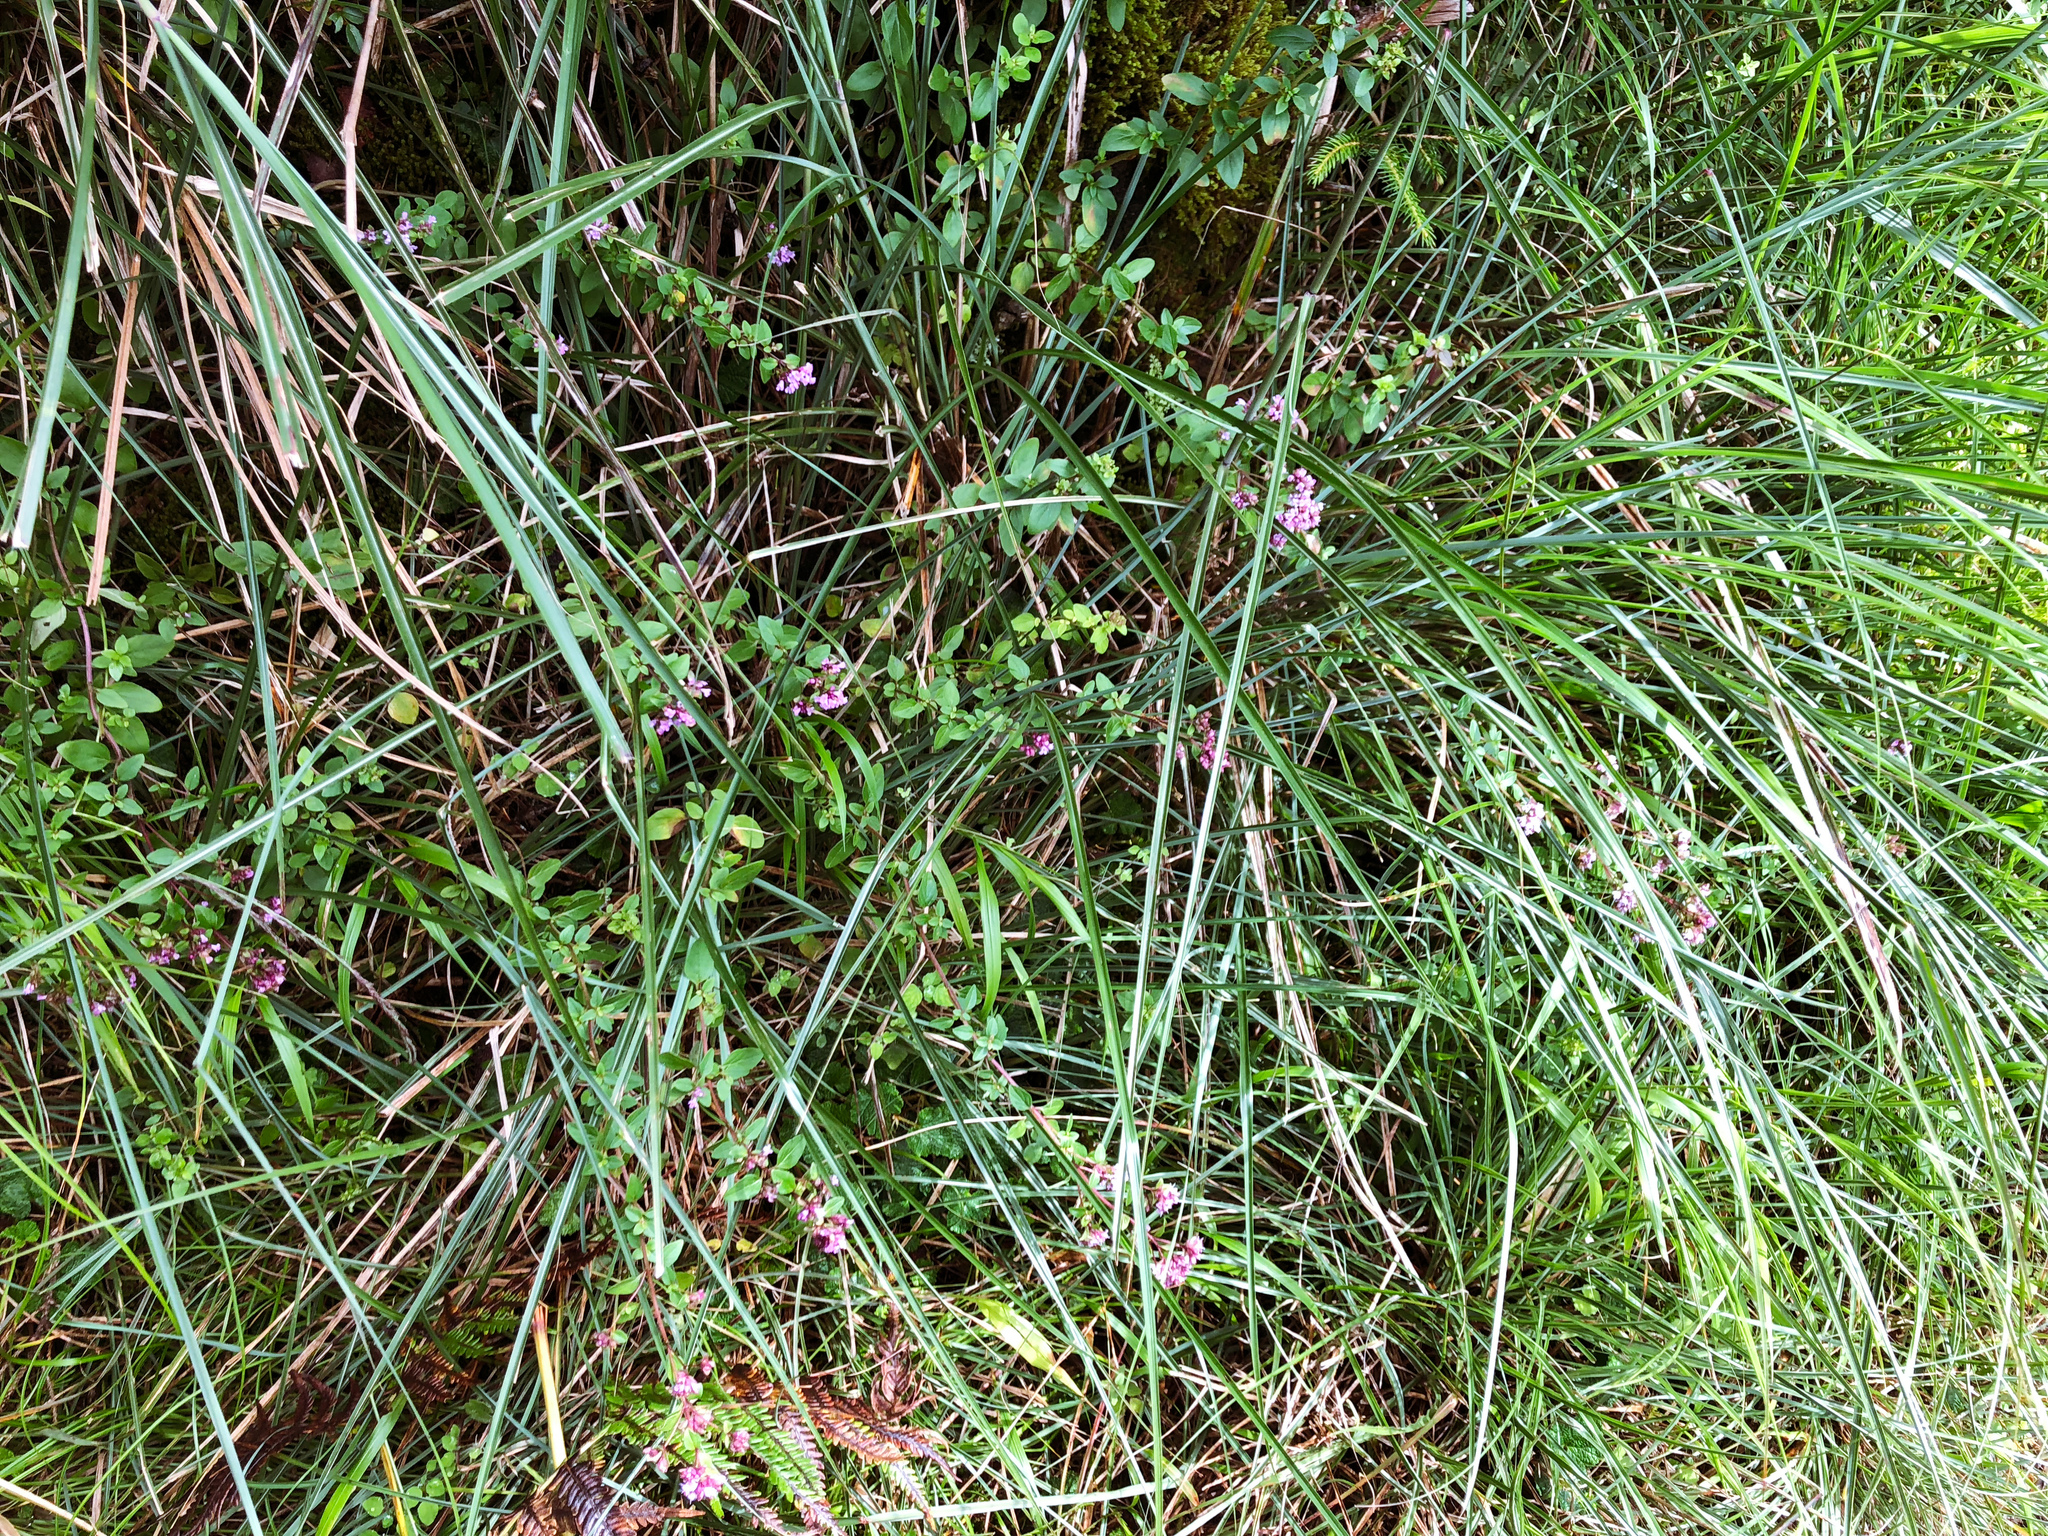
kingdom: Plantae
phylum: Tracheophyta
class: Magnoliopsida
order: Lamiales
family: Lamiaceae
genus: Origanum
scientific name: Origanum vulgare
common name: Wild marjoram
